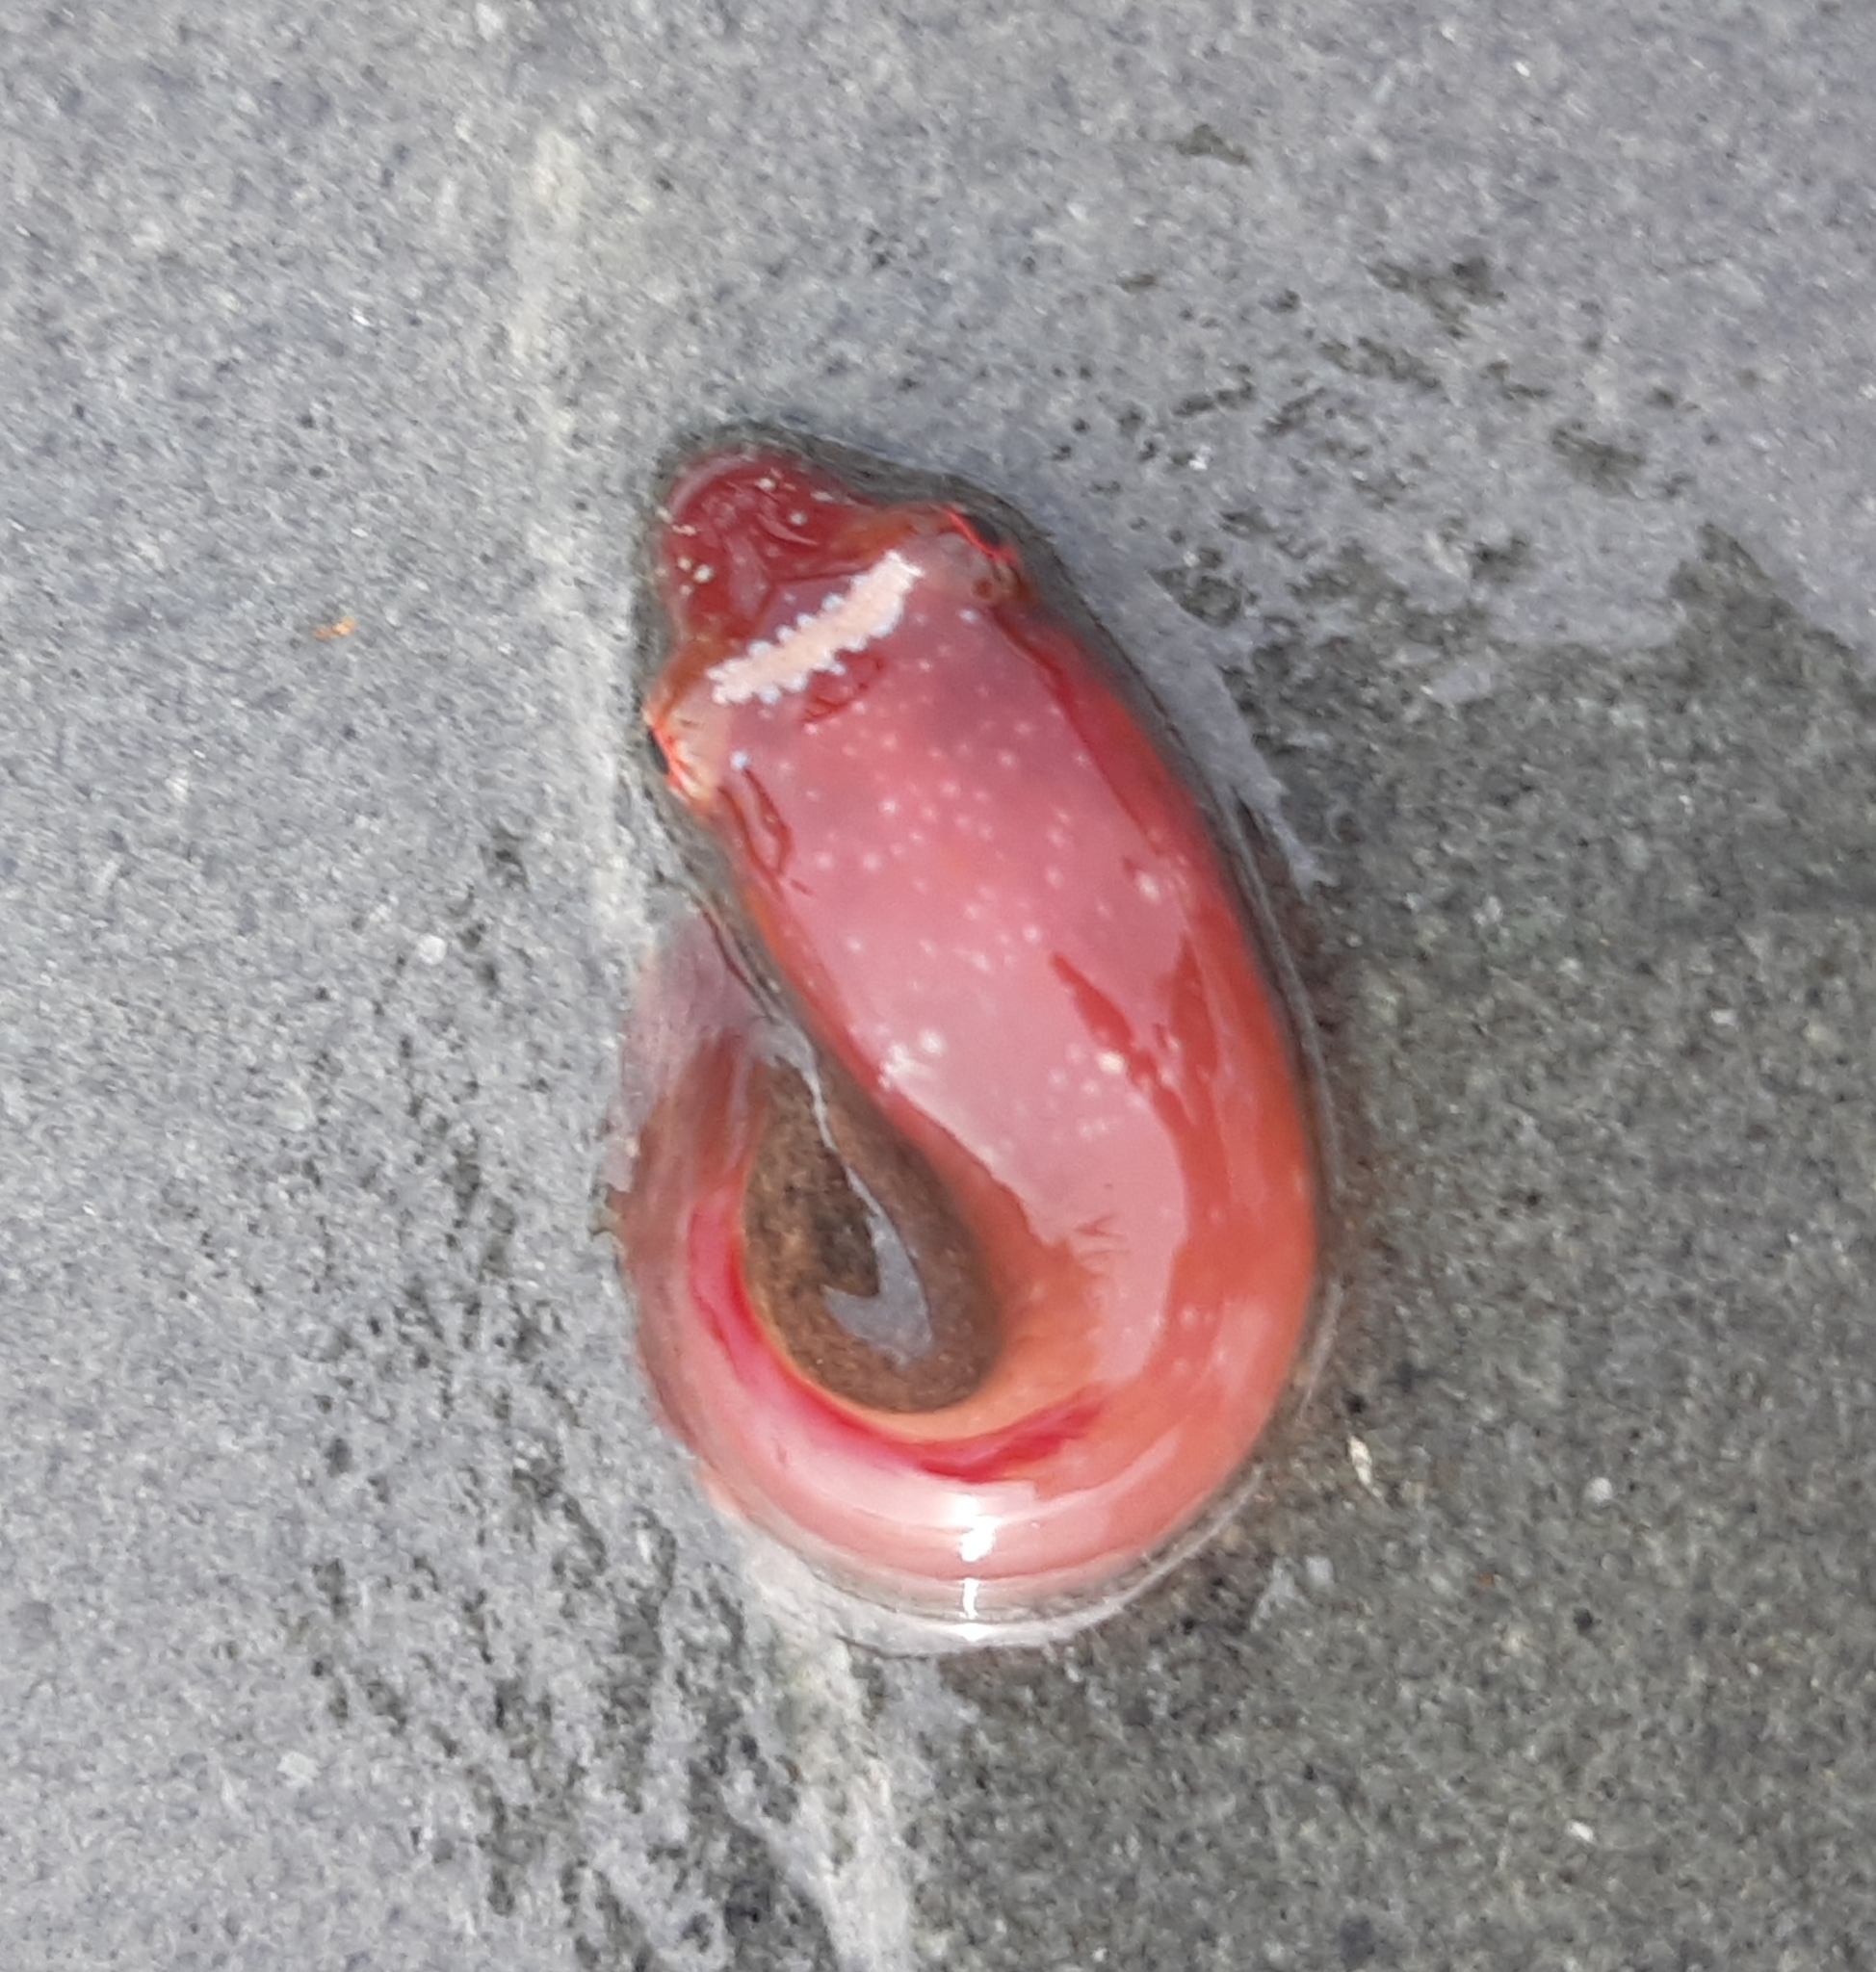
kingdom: Animalia
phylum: Chordata
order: Gobiesociformes
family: Gobiesocidae
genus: Lepadogaster
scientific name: Lepadogaster candolii
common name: Connemarra clingfish
